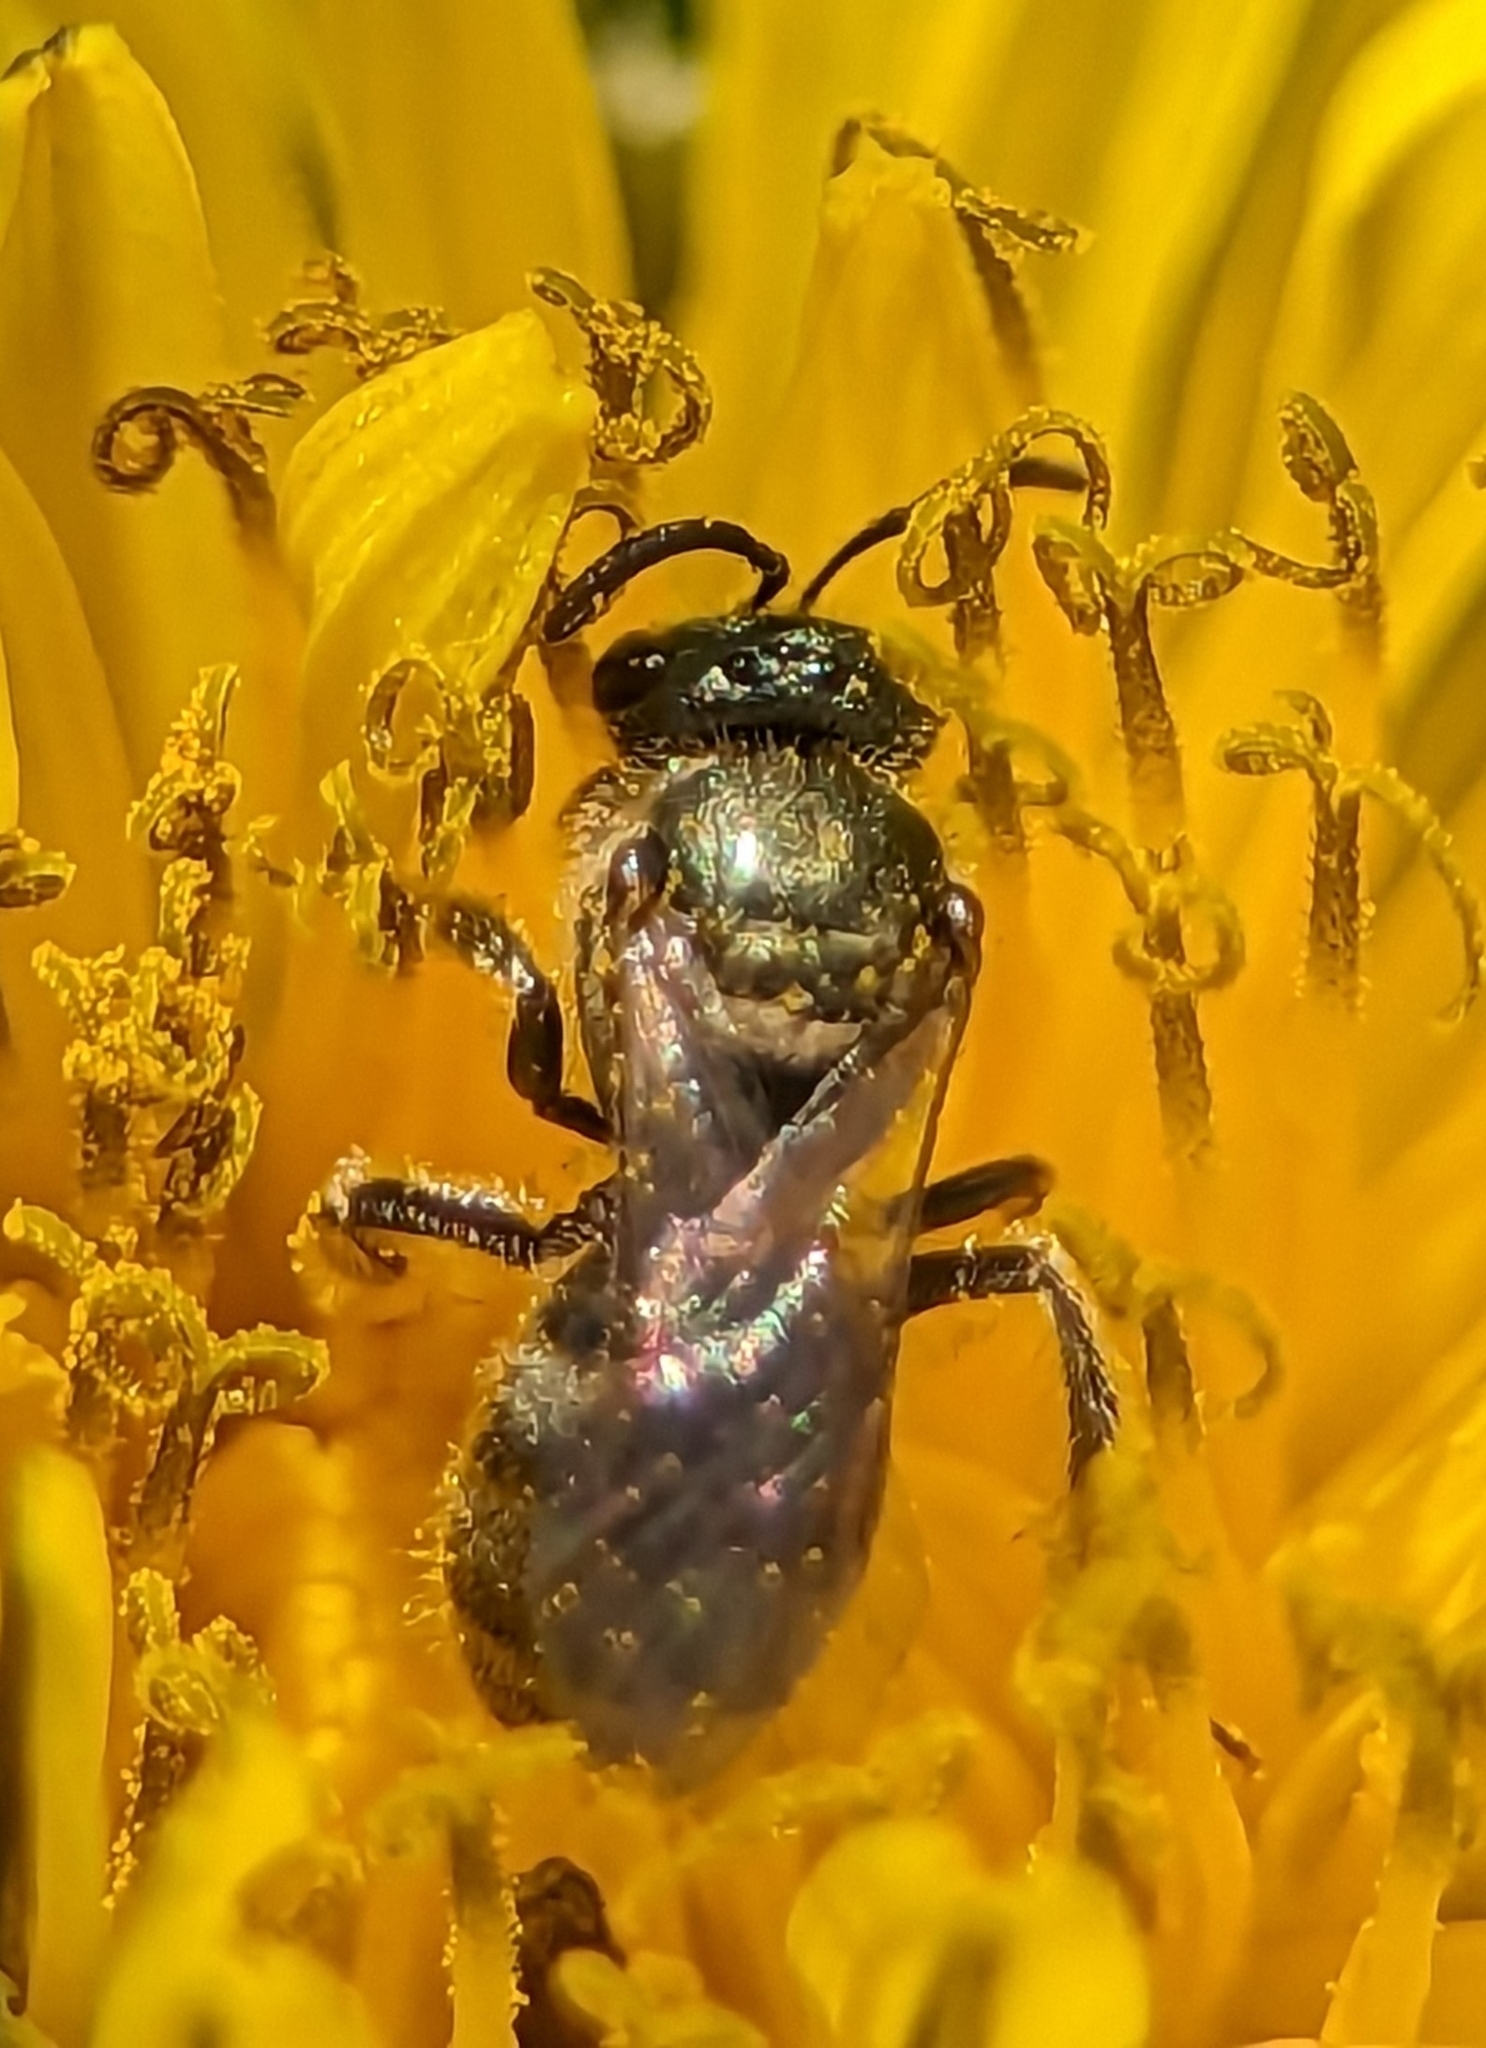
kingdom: Animalia
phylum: Arthropoda
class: Insecta
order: Hymenoptera
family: Halictidae
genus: Dialictus
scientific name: Dialictus
